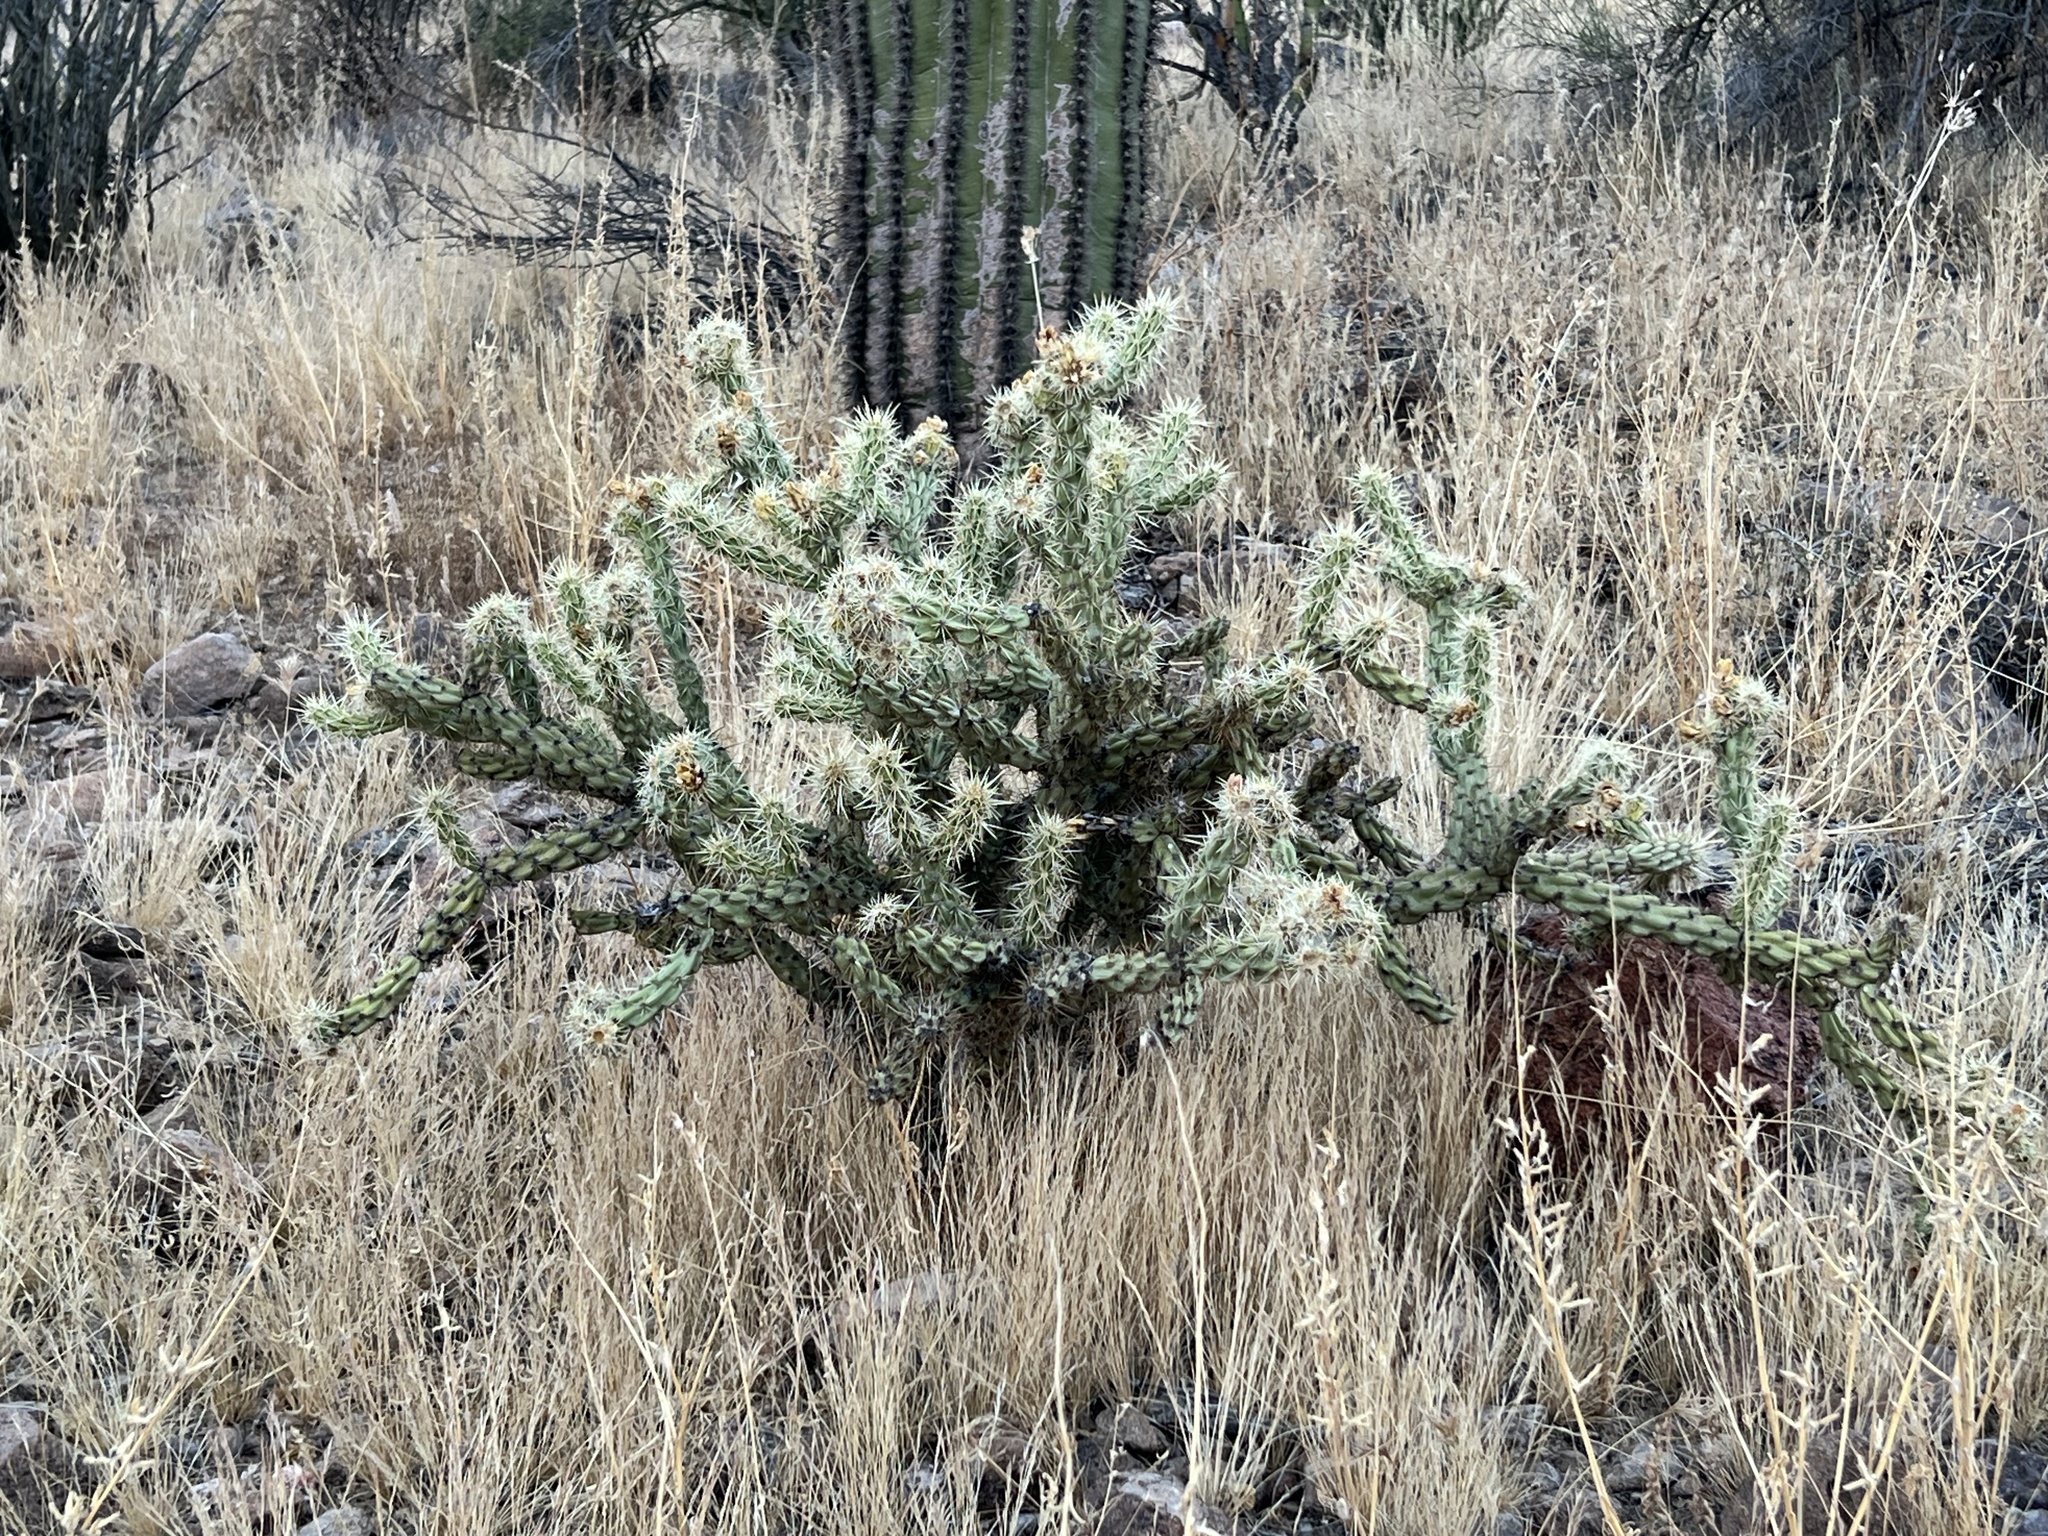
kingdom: Plantae
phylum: Tracheophyta
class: Magnoliopsida
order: Caryophyllales
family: Cactaceae
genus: Cylindropuntia
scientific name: Cylindropuntia acanthocarpa
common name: Buckhorn cholla
